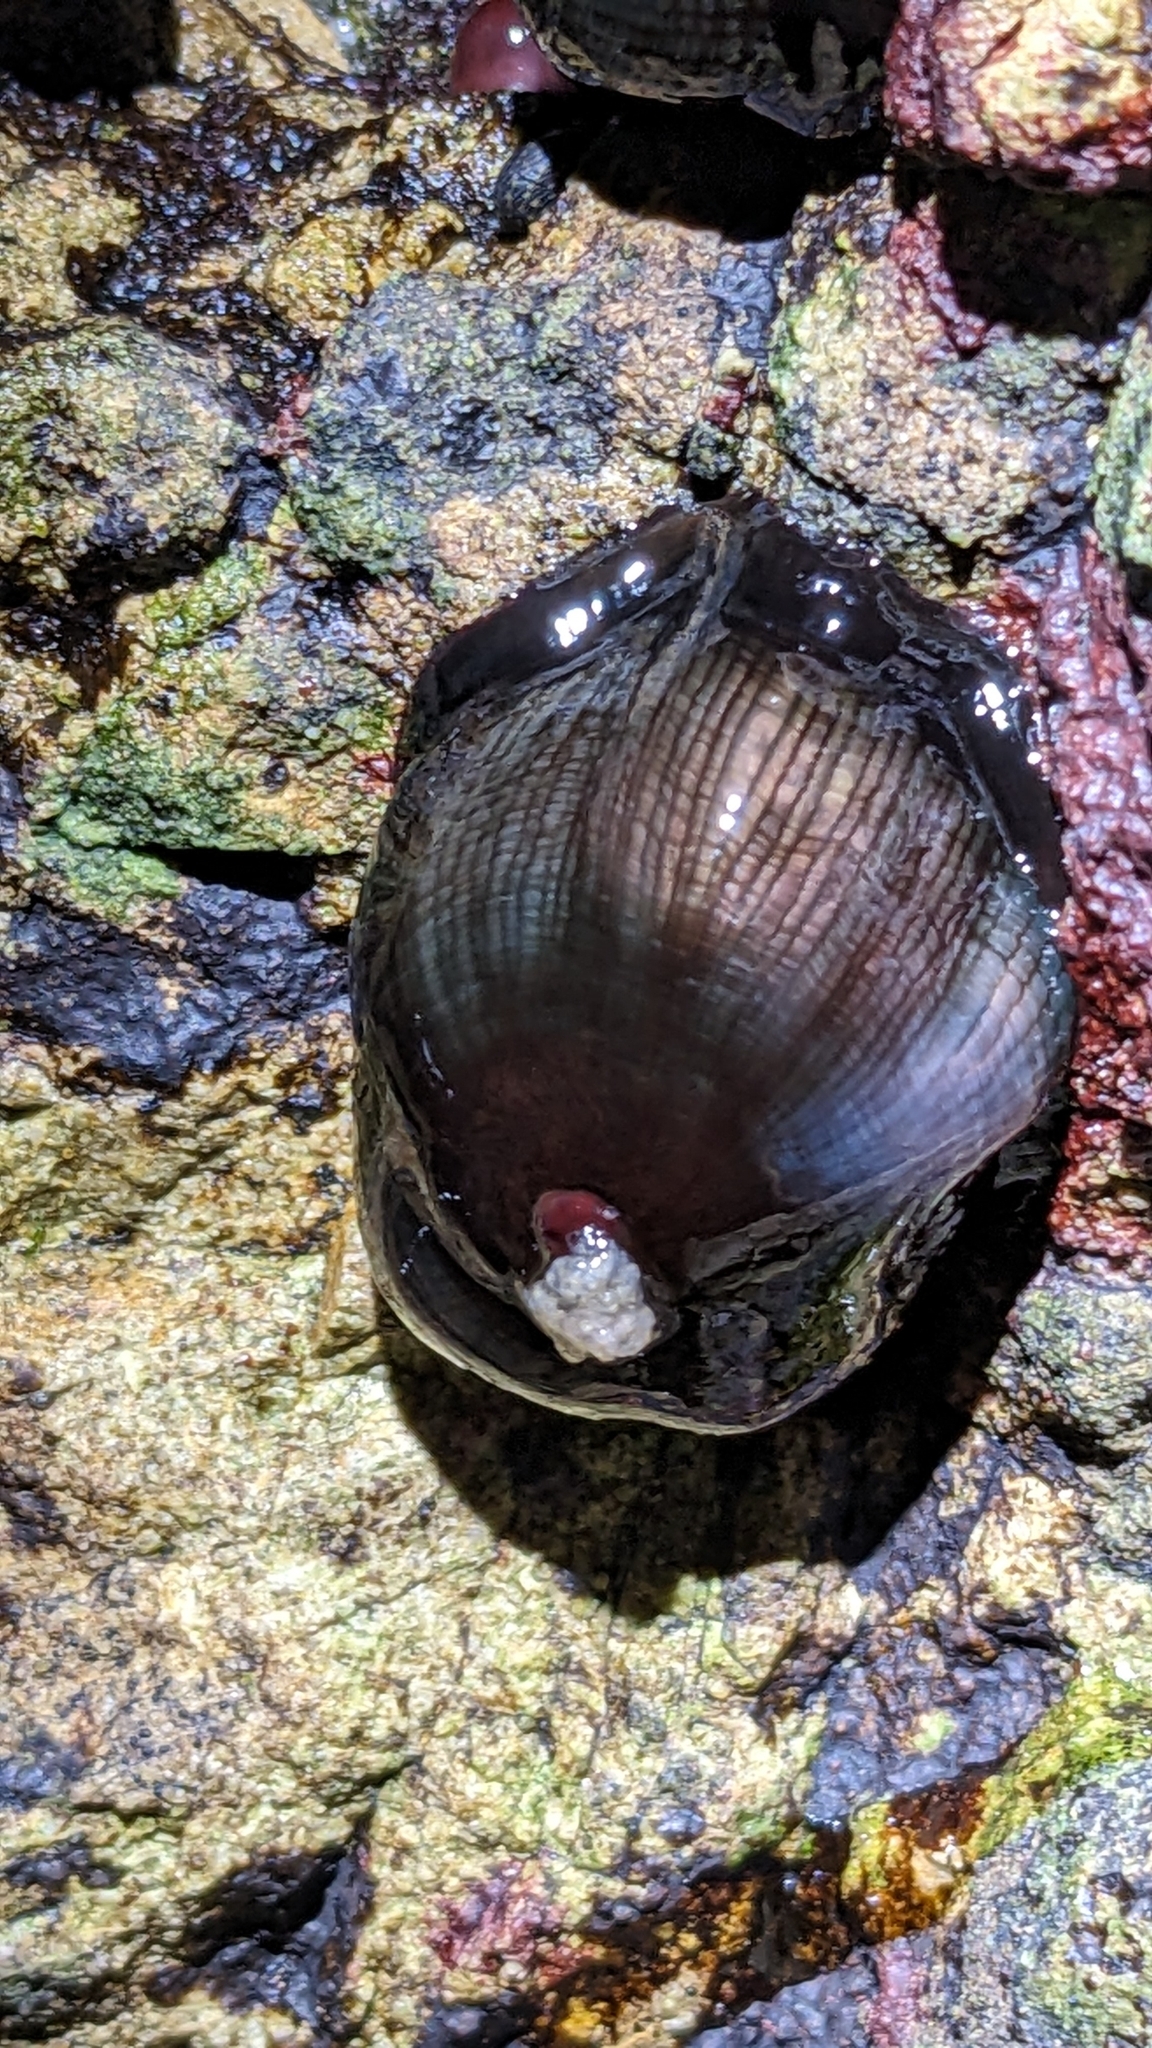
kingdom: Animalia
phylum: Cnidaria
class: Anthozoa
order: Actiniaria
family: Actiniidae
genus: Actinia
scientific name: Actinia tenebrosa
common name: Waratah anemone
